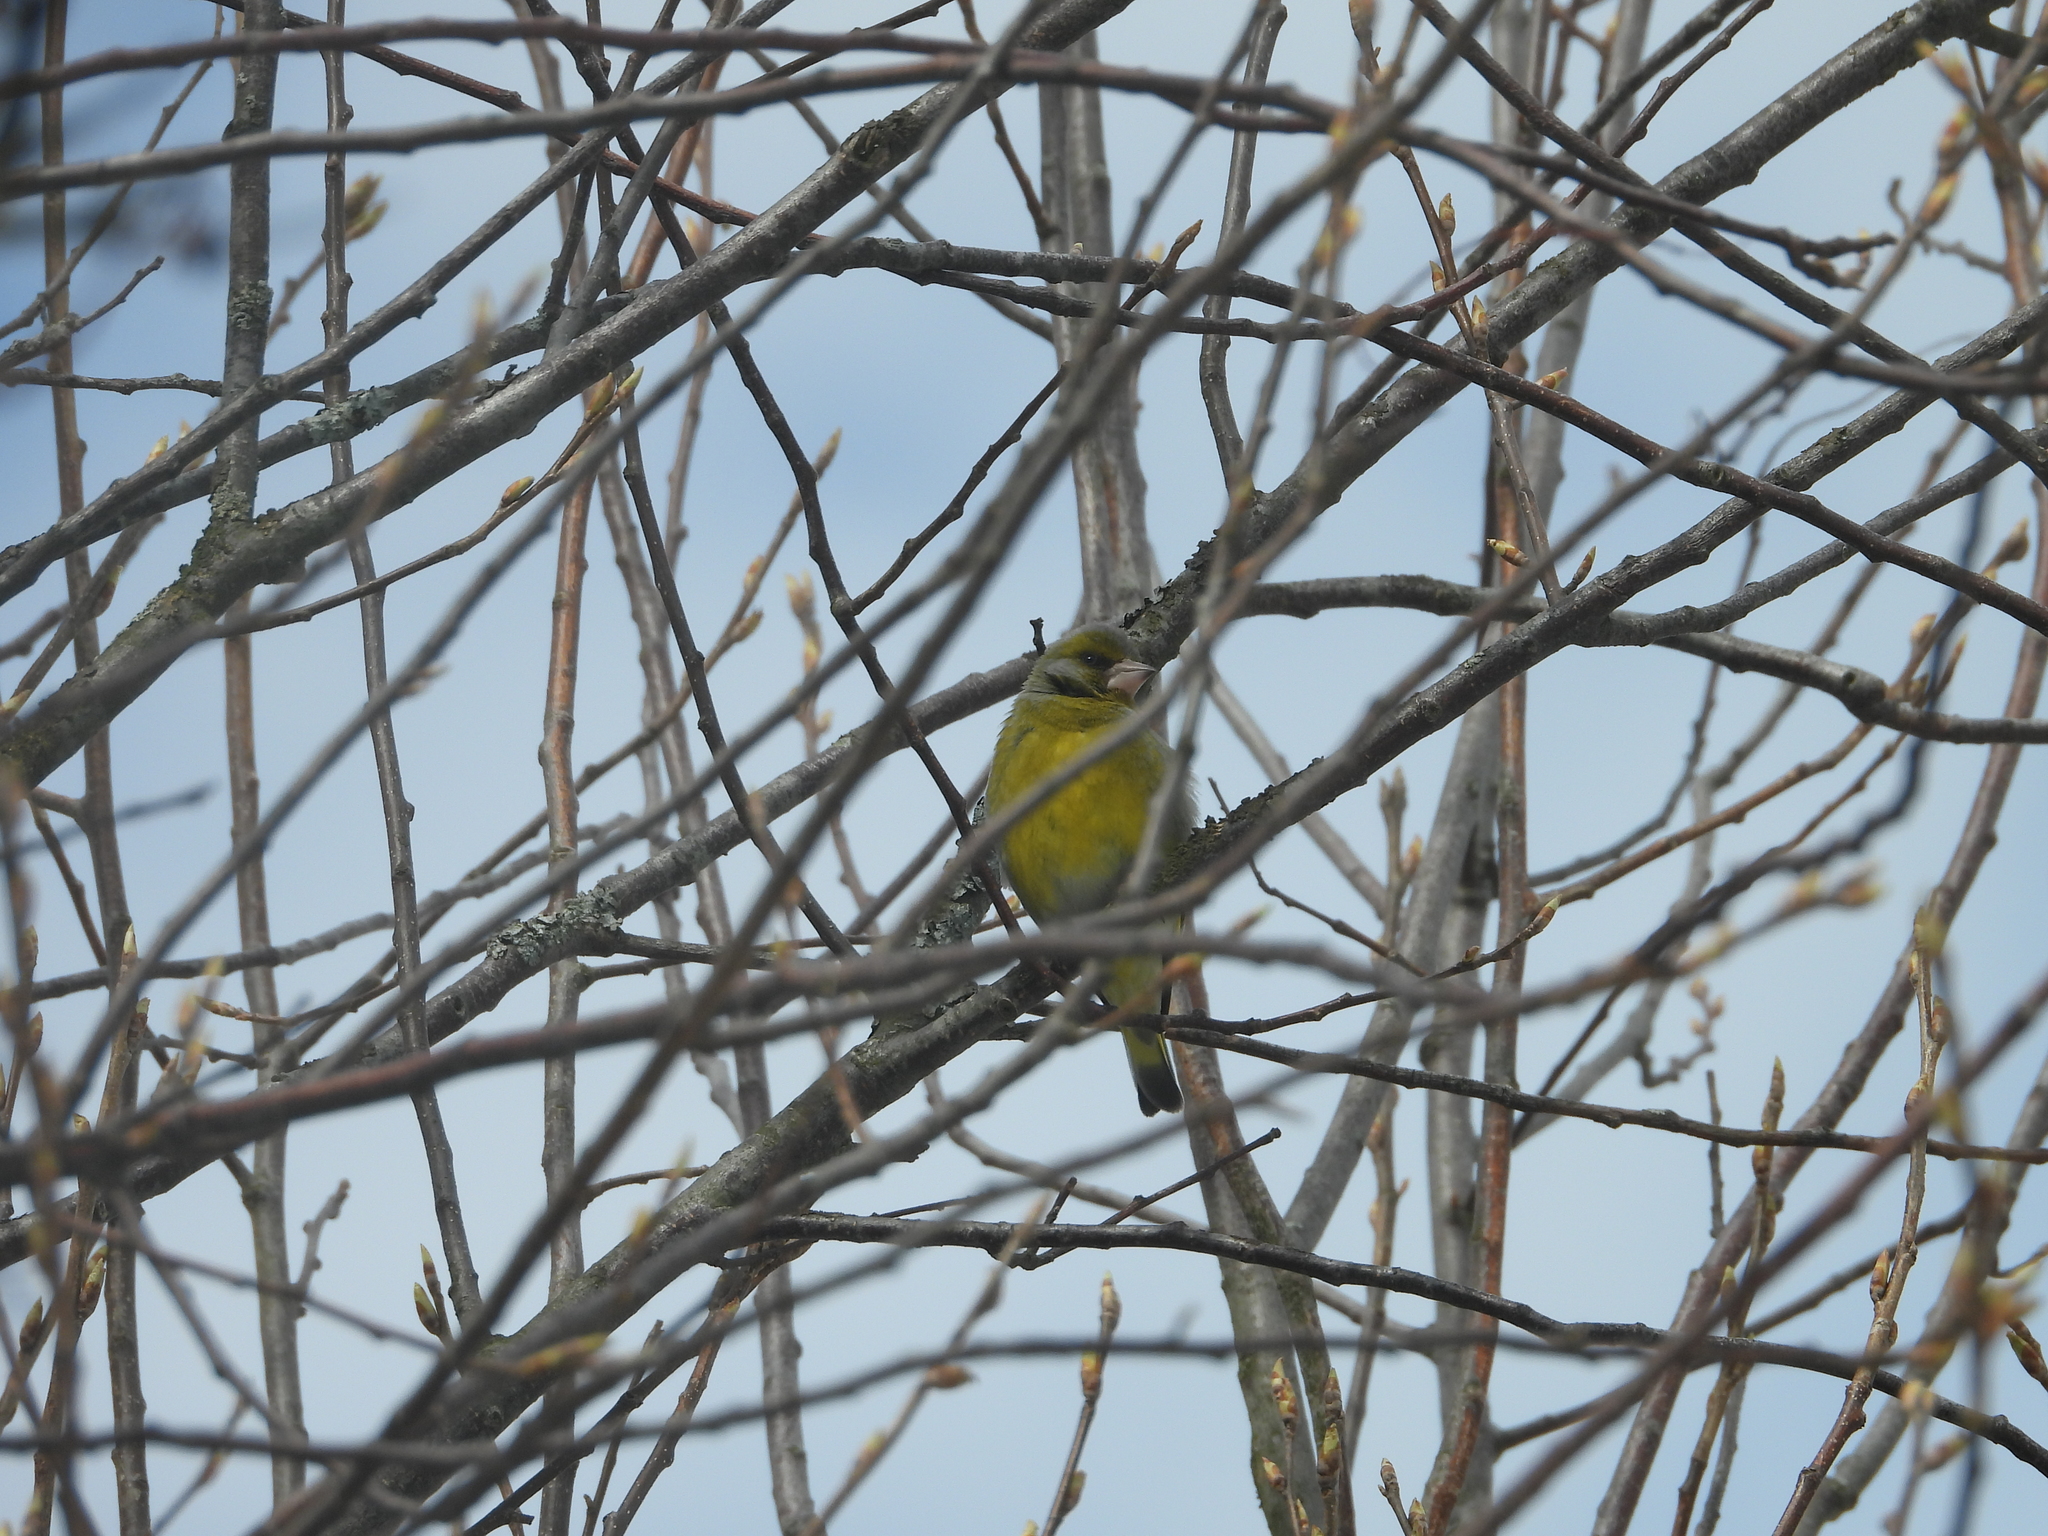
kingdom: Plantae
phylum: Tracheophyta
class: Liliopsida
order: Poales
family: Poaceae
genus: Chloris
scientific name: Chloris chloris
